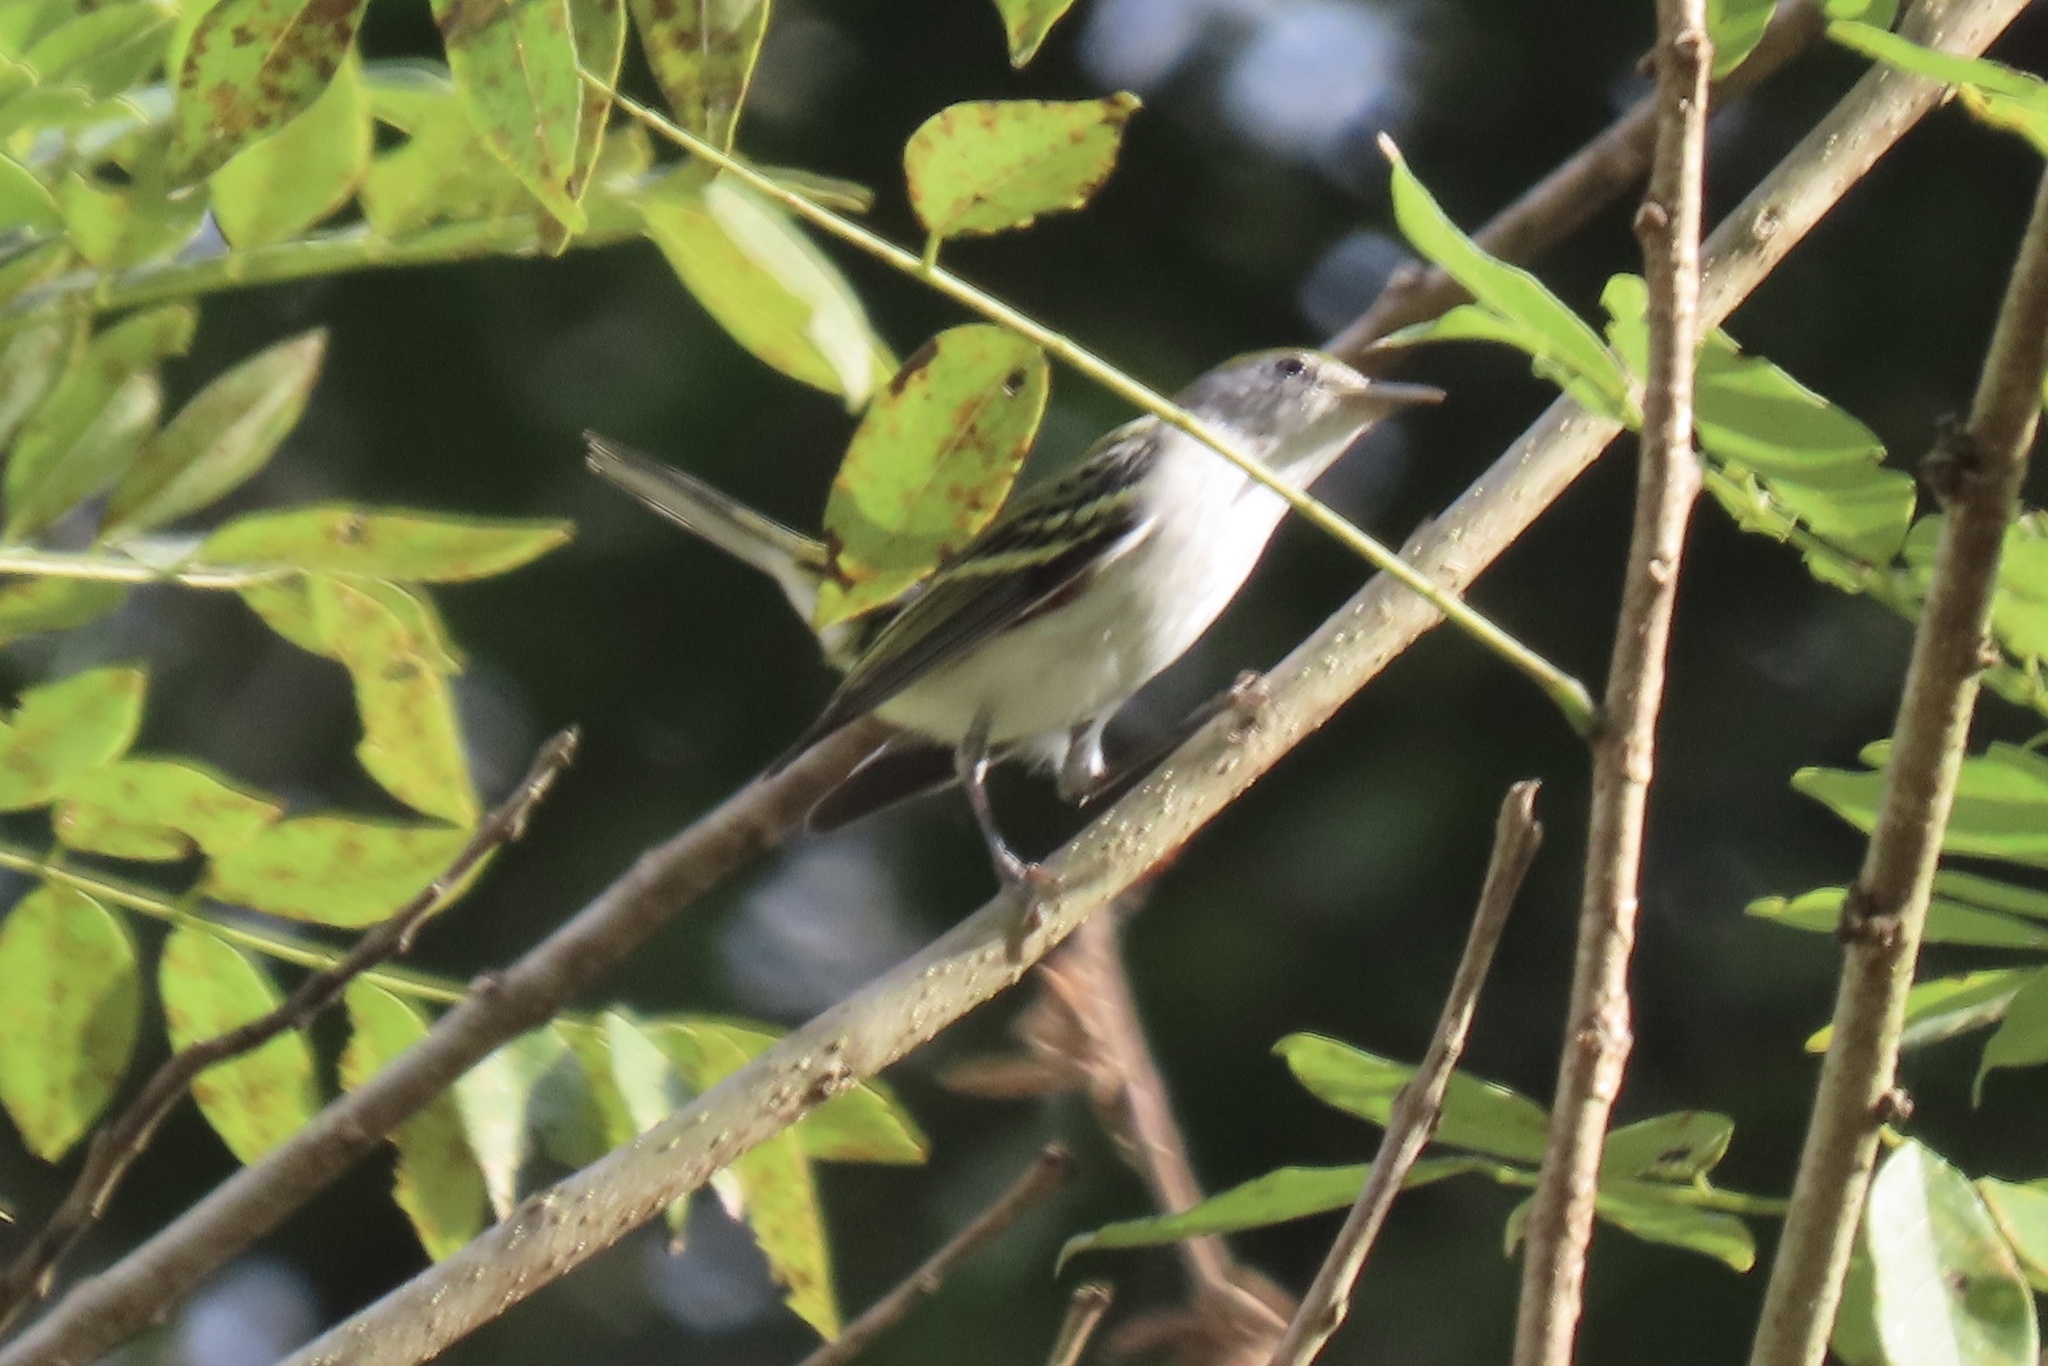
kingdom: Animalia
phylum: Chordata
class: Aves
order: Passeriformes
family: Parulidae
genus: Setophaga
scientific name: Setophaga pensylvanica
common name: Chestnut-sided warbler
